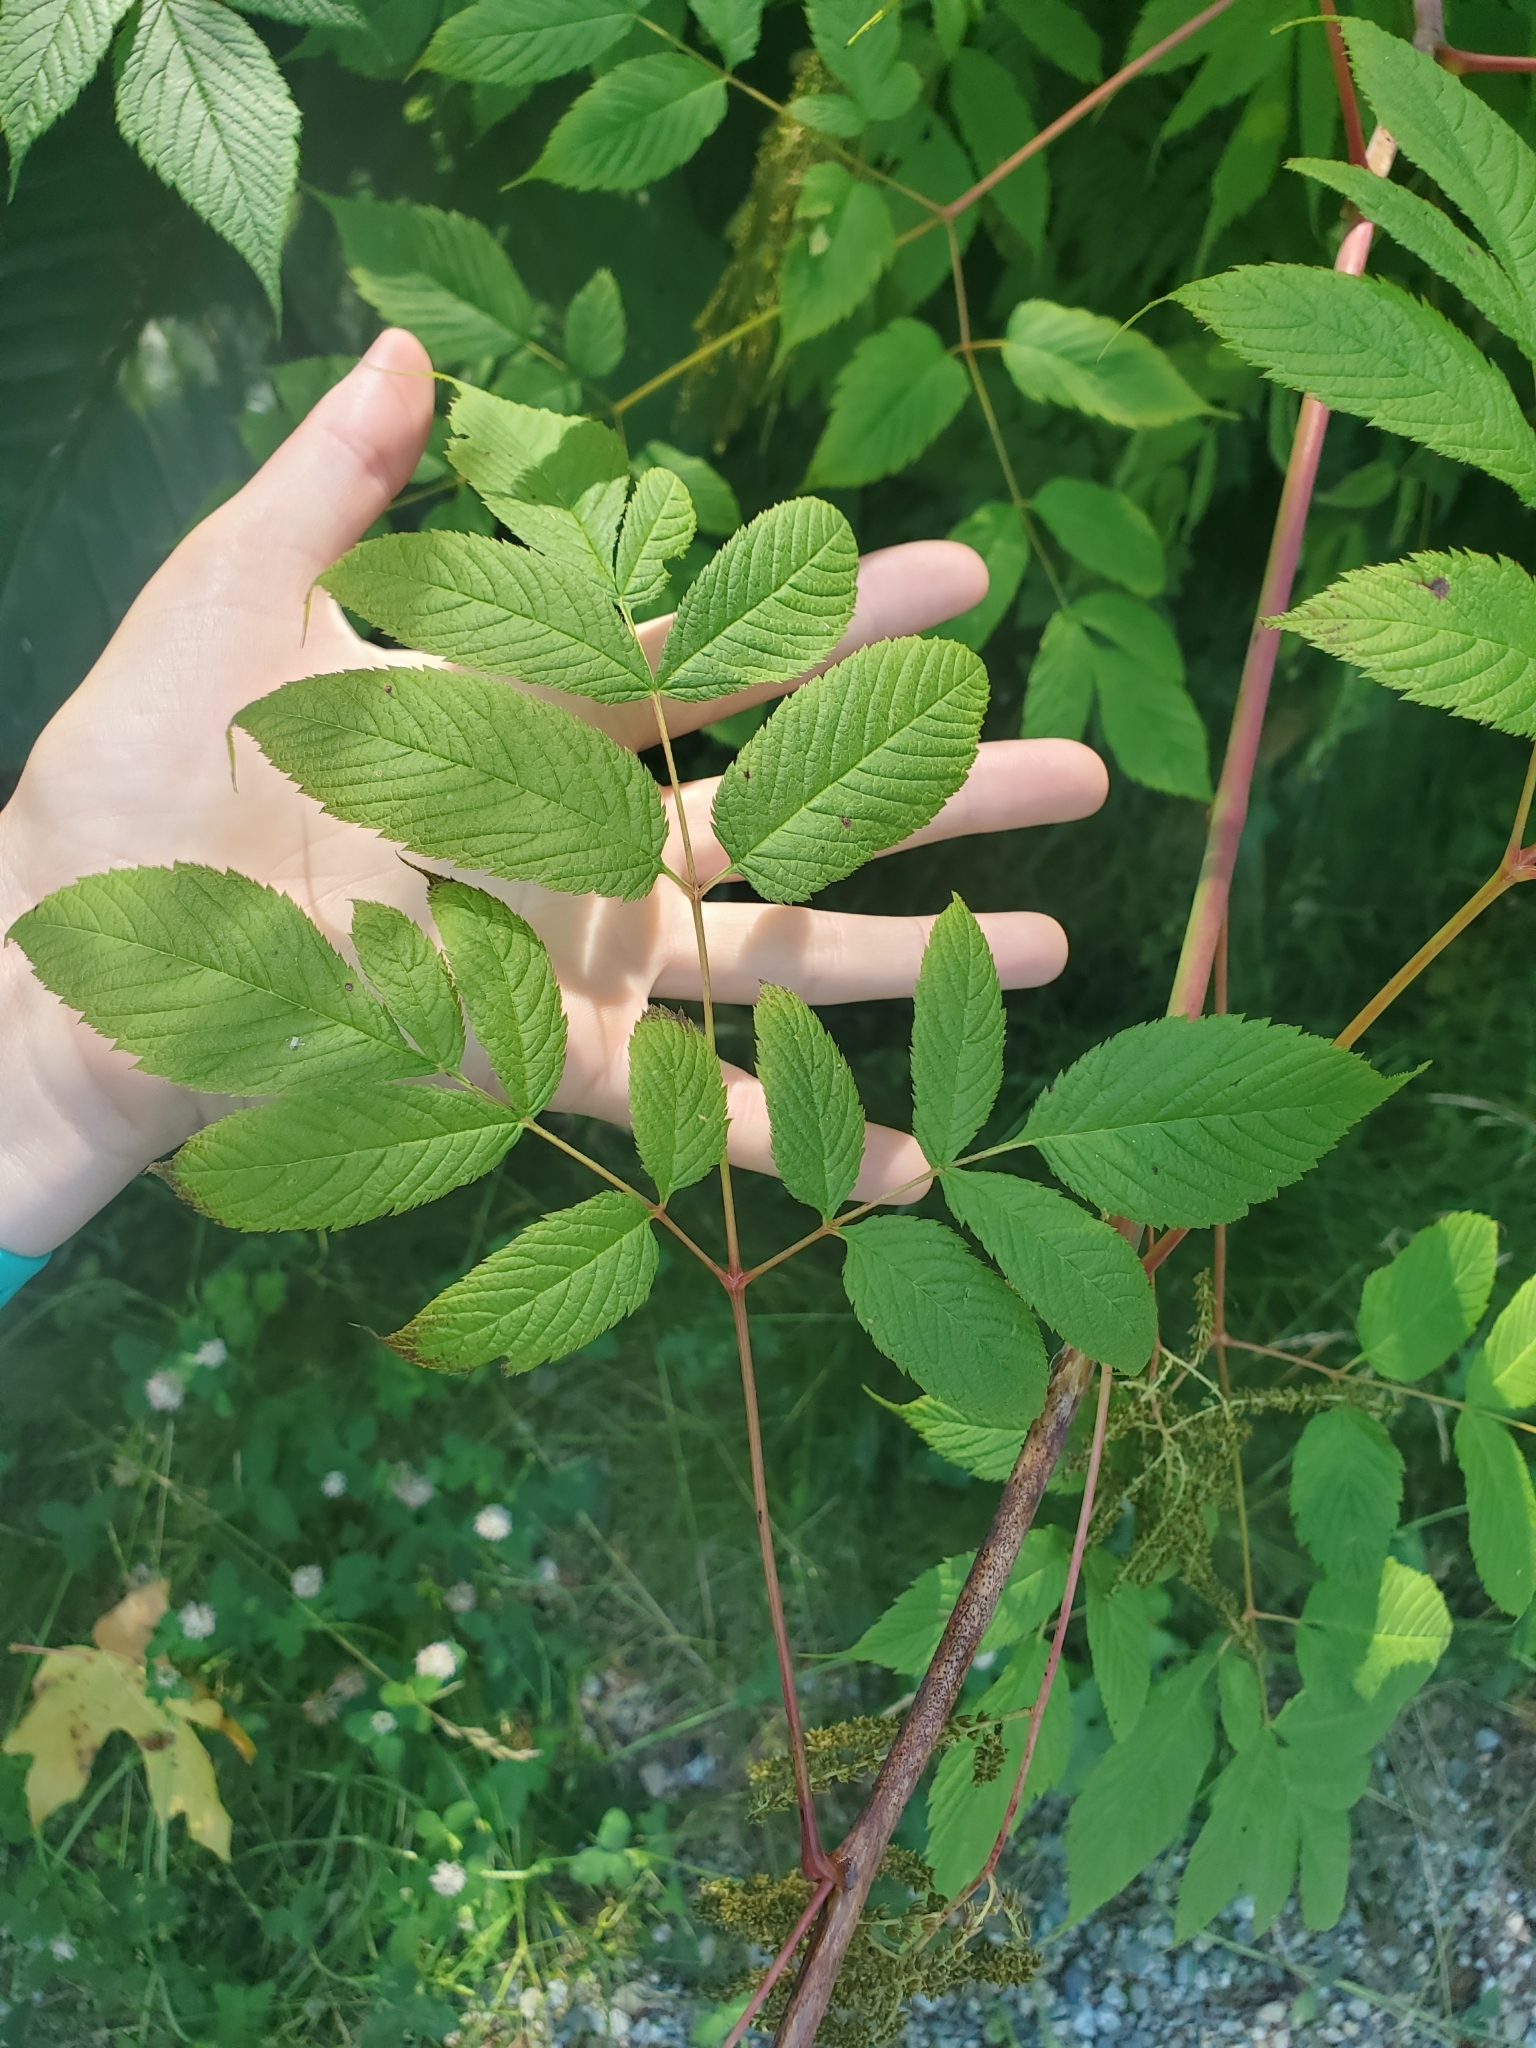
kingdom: Plantae
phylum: Tracheophyta
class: Magnoliopsida
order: Rosales
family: Rosaceae
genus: Aruncus
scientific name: Aruncus dioicus
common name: Buck's-beard
